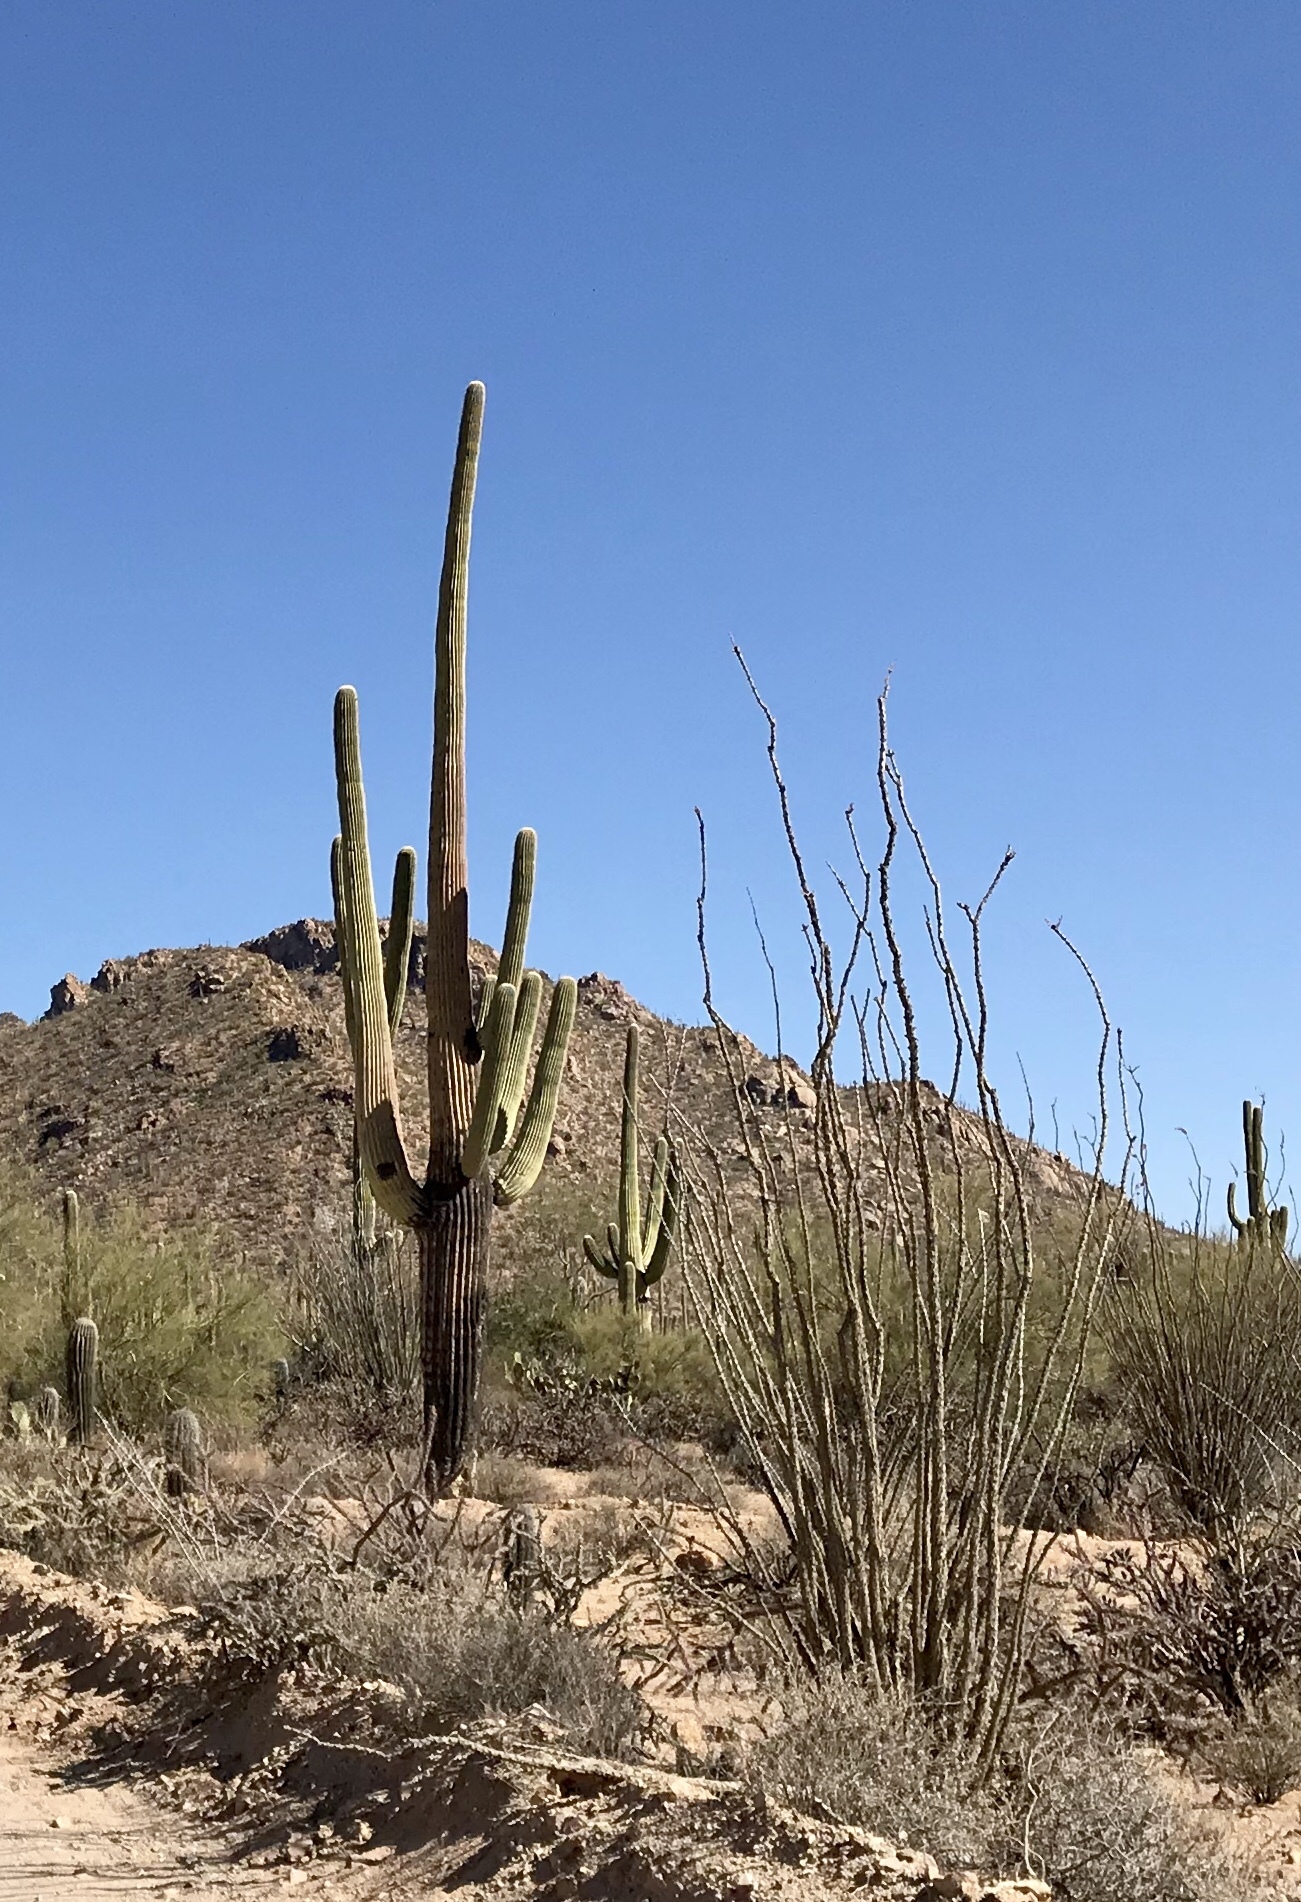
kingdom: Plantae
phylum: Tracheophyta
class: Magnoliopsida
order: Ericales
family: Fouquieriaceae
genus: Fouquieria
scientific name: Fouquieria splendens
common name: Vine-cactus
